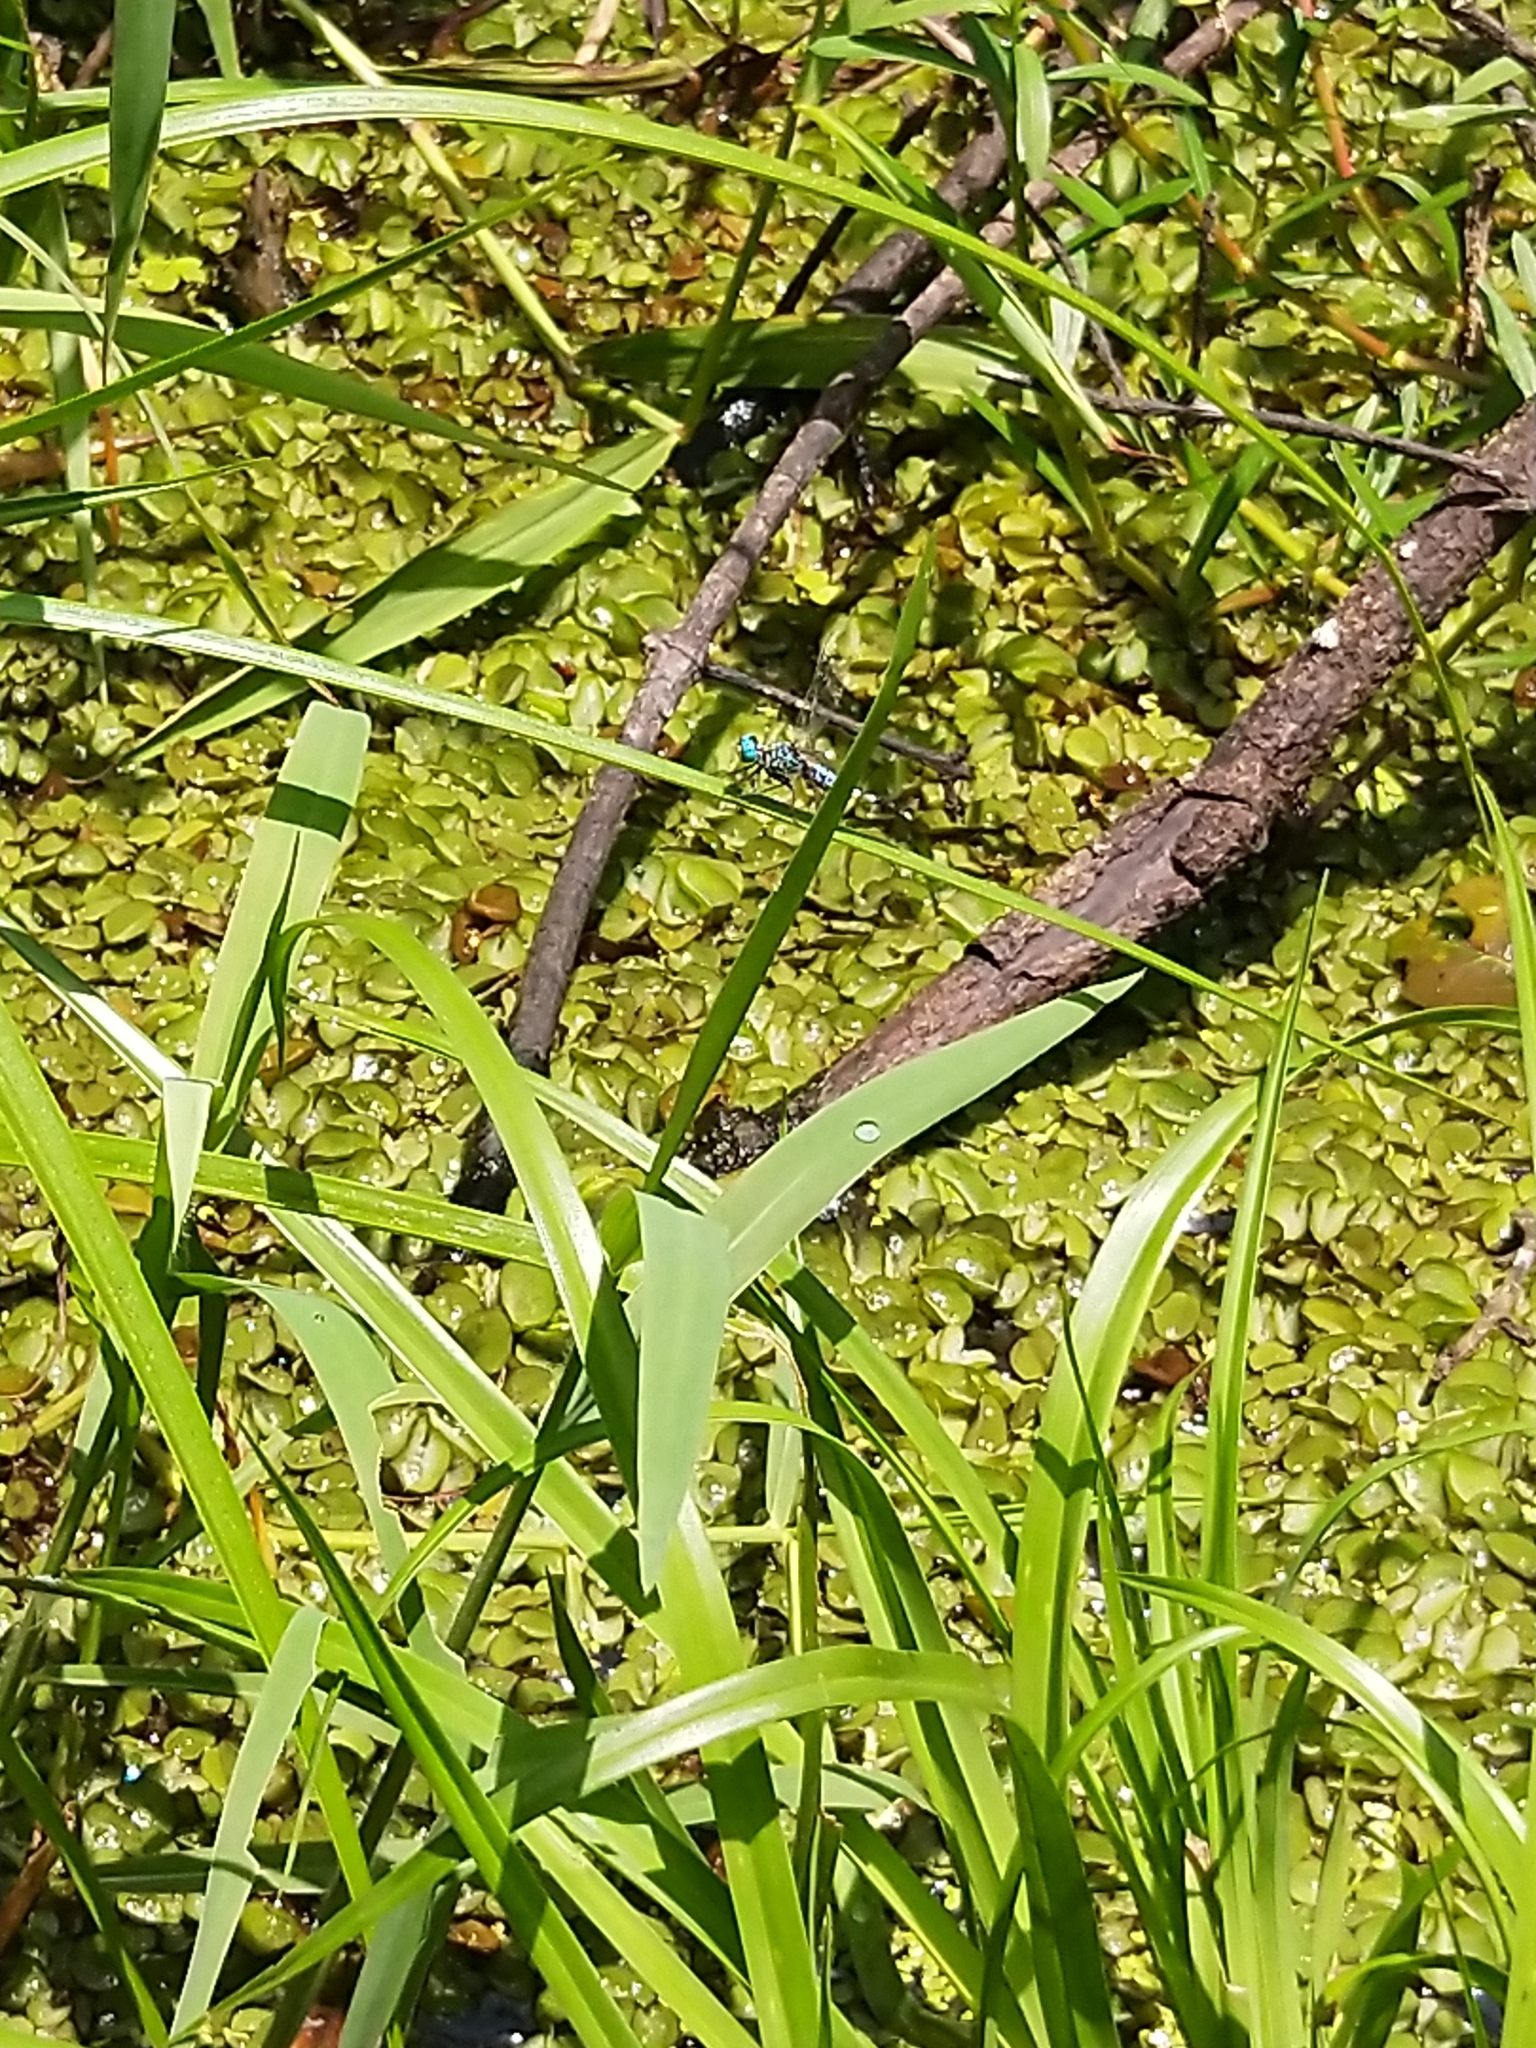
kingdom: Animalia
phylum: Arthropoda
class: Insecta
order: Odonata
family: Libellulidae
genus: Acisoma
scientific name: Acisoma panorpoides
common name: Asian pintail
